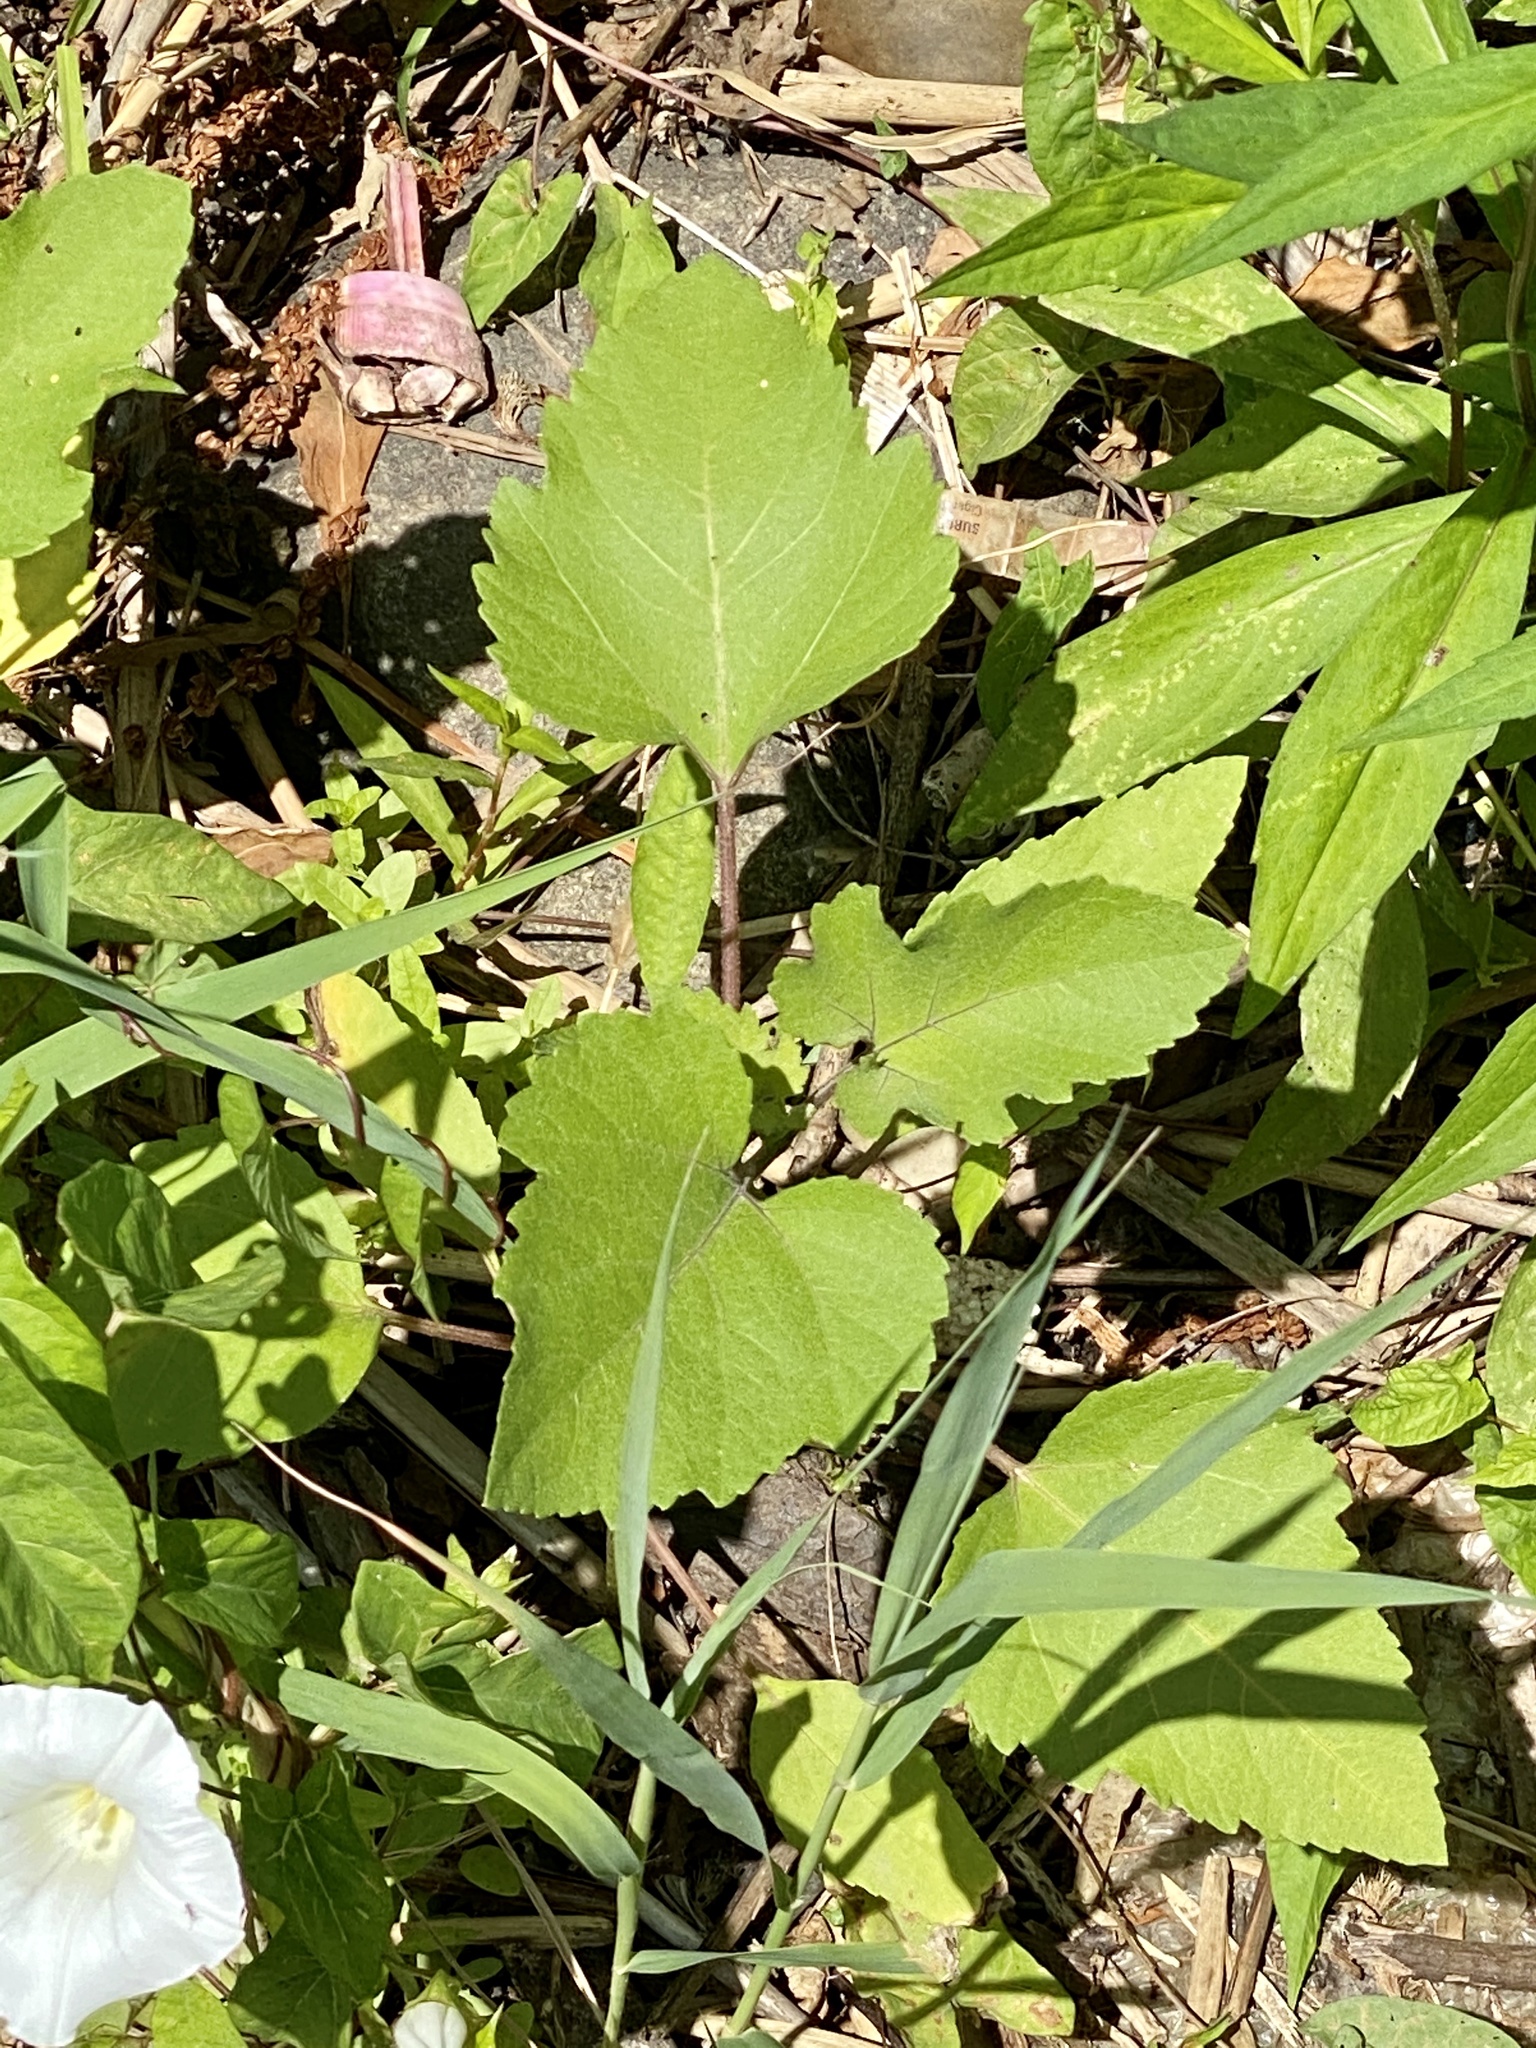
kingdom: Plantae
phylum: Tracheophyta
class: Magnoliopsida
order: Asterales
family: Asteraceae
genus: Xanthium
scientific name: Xanthium strumarium
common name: Rough cocklebur
